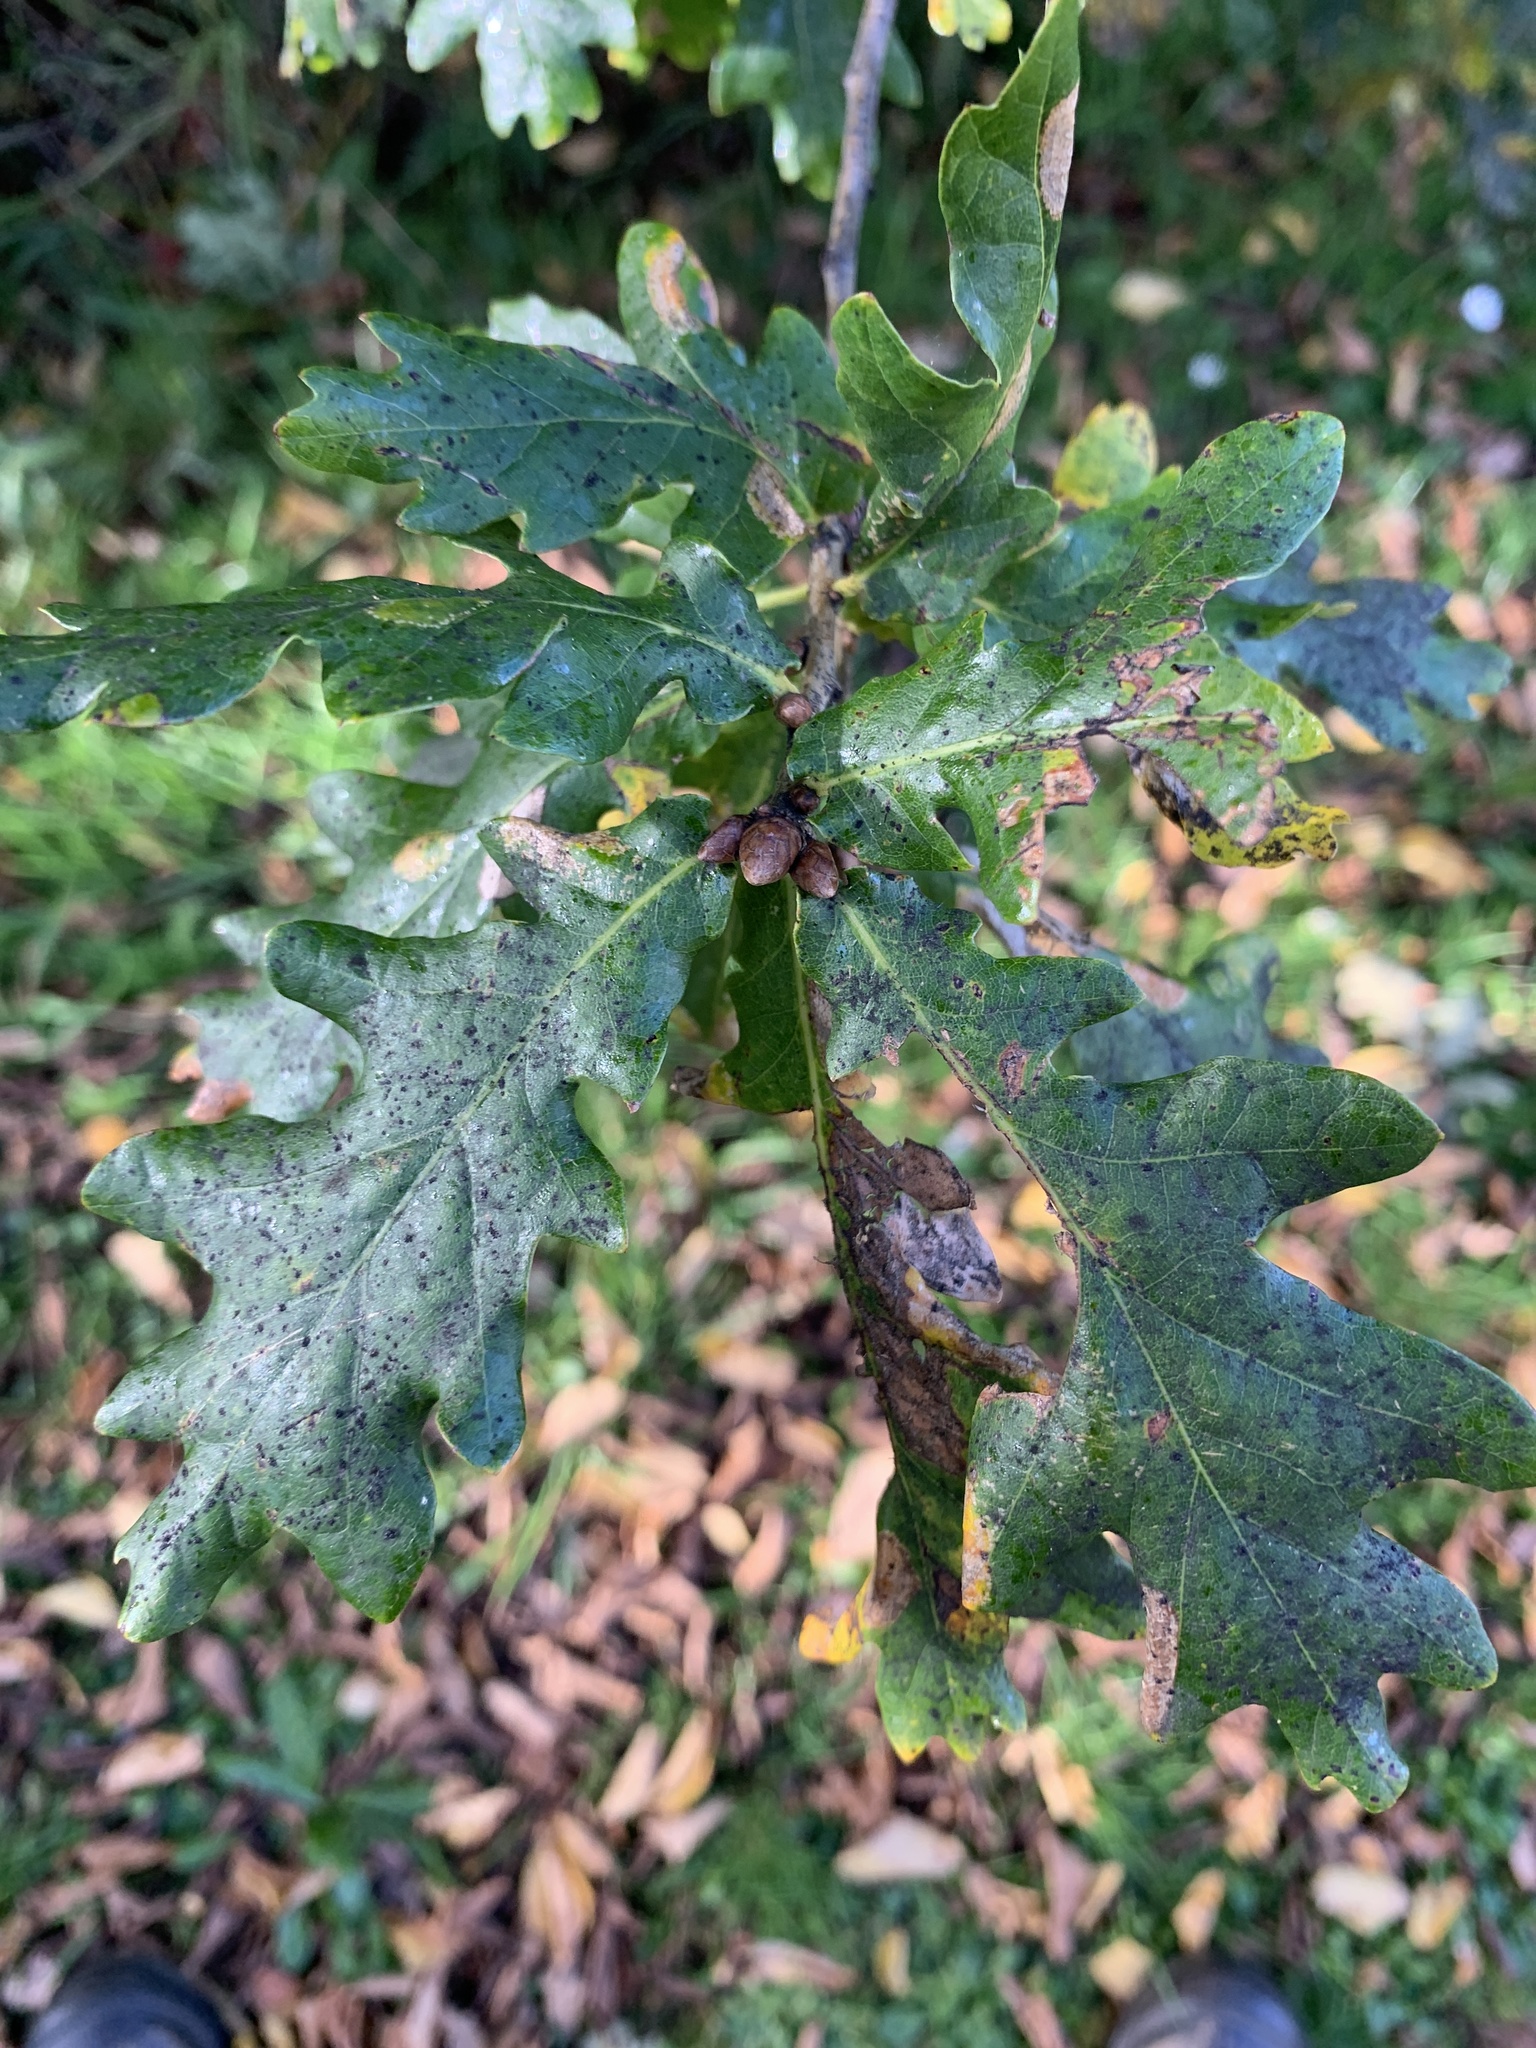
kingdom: Plantae
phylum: Tracheophyta
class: Magnoliopsida
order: Fagales
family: Fagaceae
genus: Quercus
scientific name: Quercus
